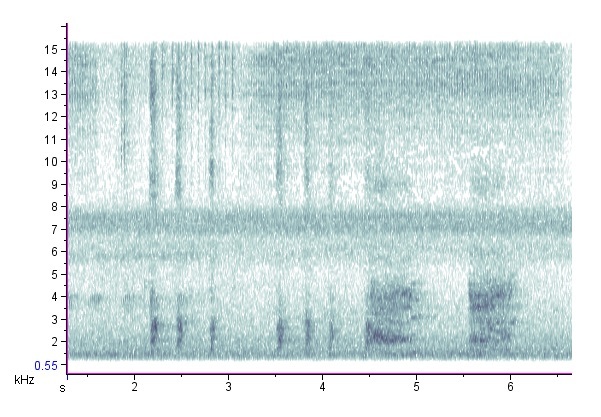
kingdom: Animalia
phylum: Chordata
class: Mammalia
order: Rodentia
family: Sciuridae
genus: Sciurus
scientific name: Sciurus carolinensis
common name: Eastern gray squirrel
